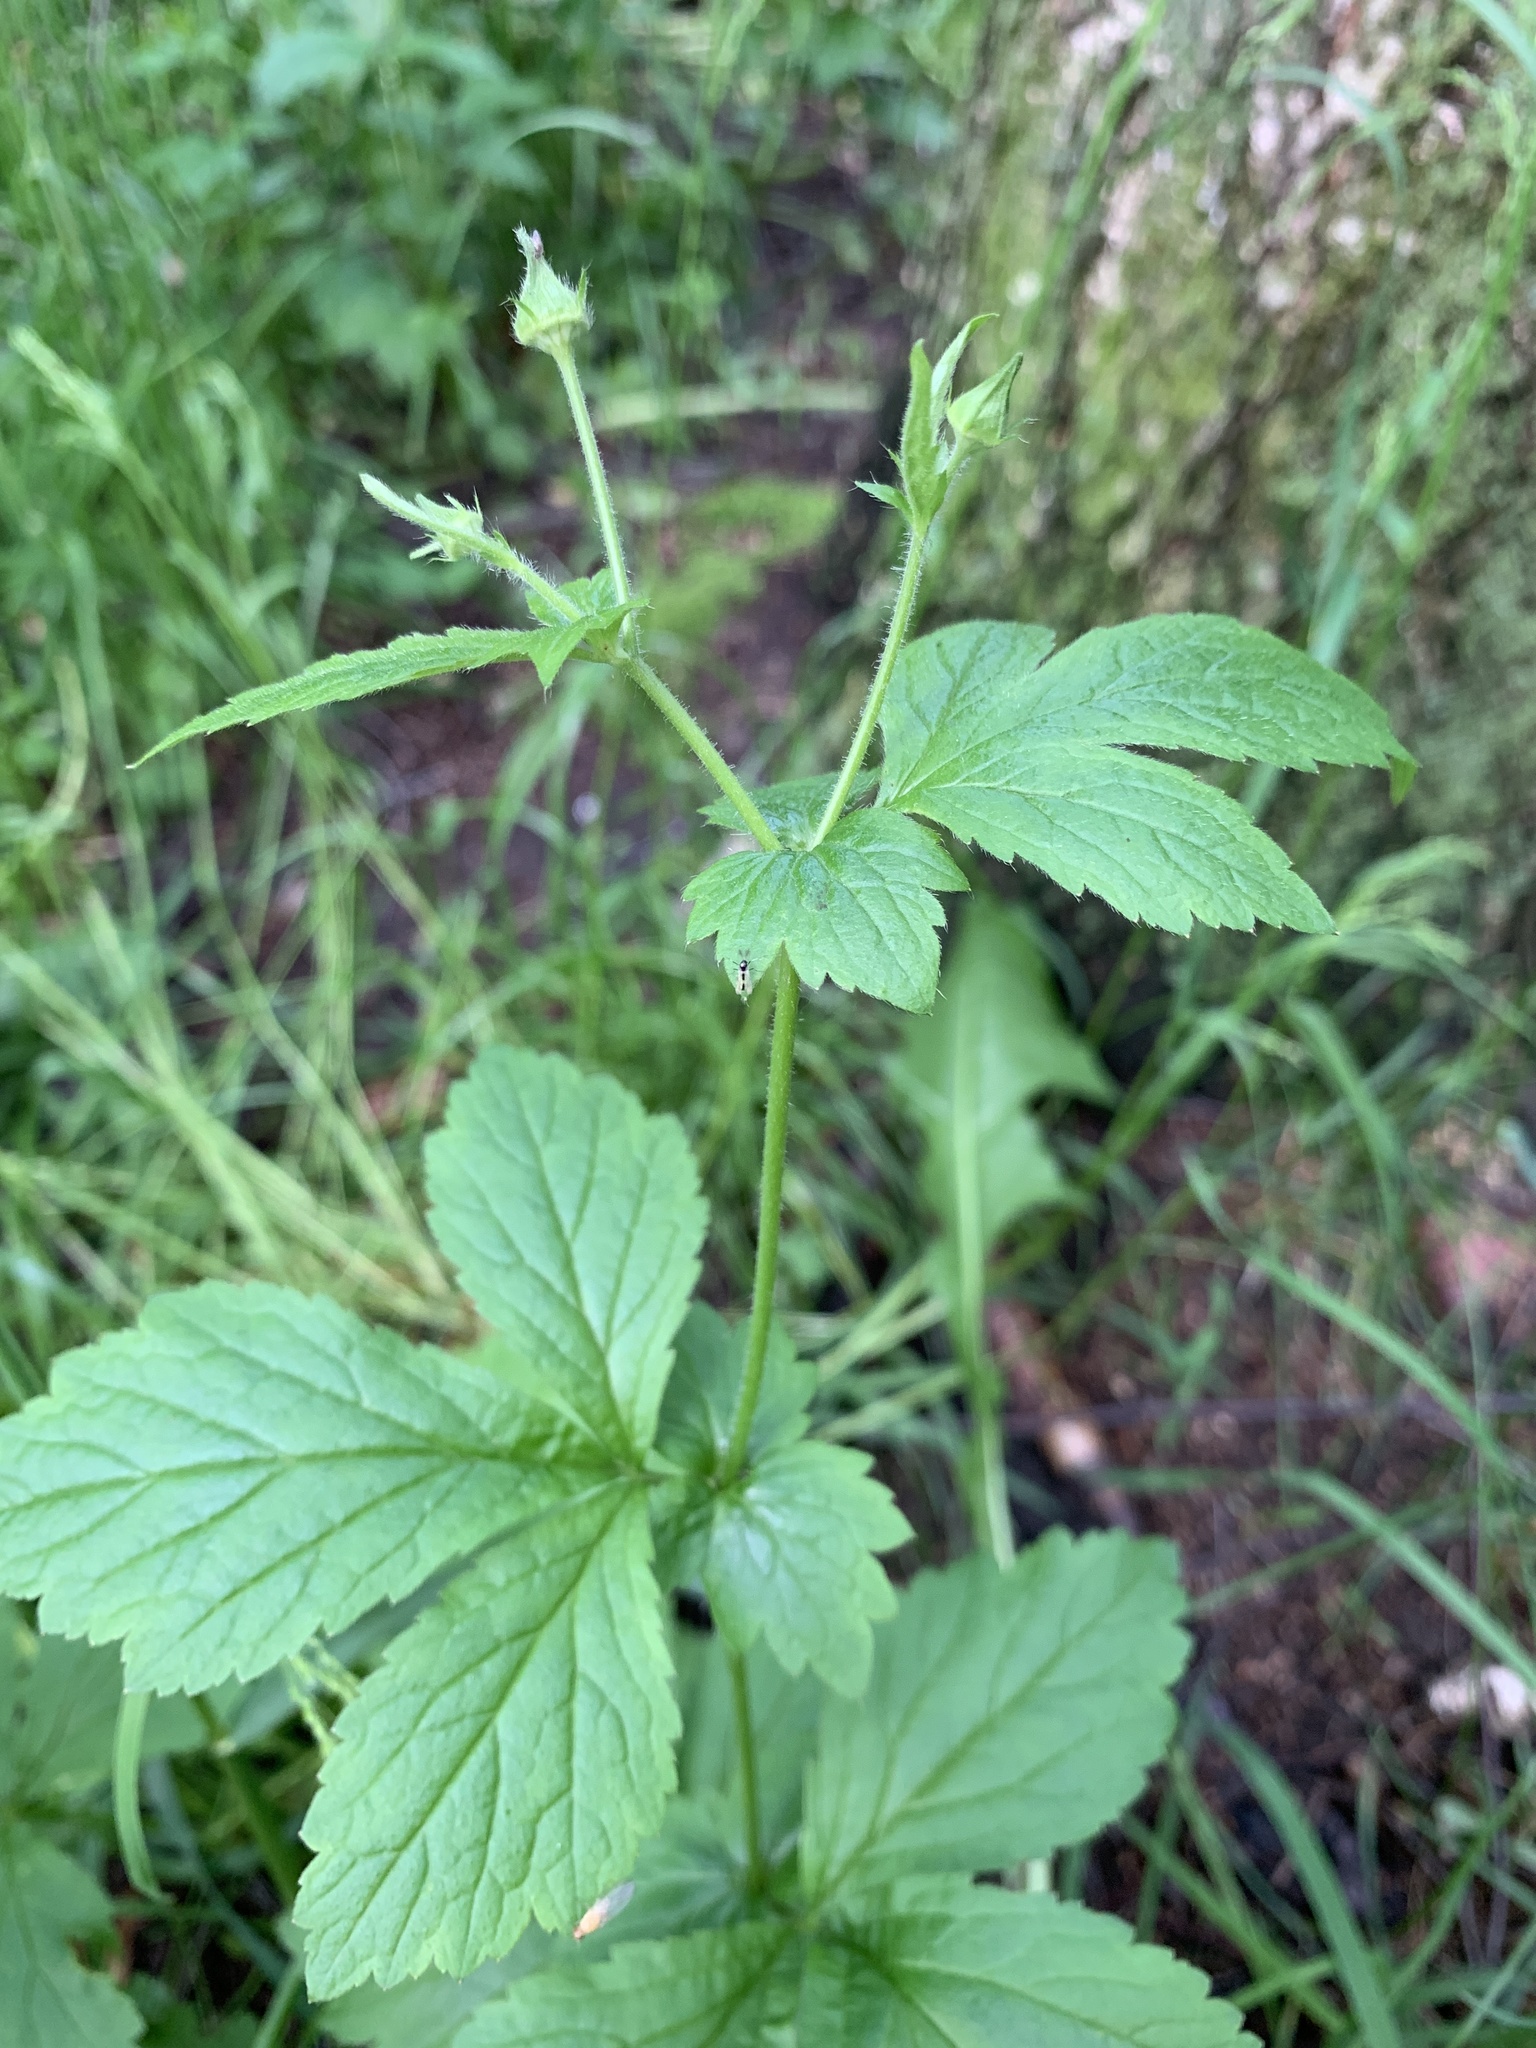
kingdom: Plantae
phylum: Tracheophyta
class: Magnoliopsida
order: Rosales
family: Rosaceae
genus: Geum
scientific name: Geum urbanum
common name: Wood avens
